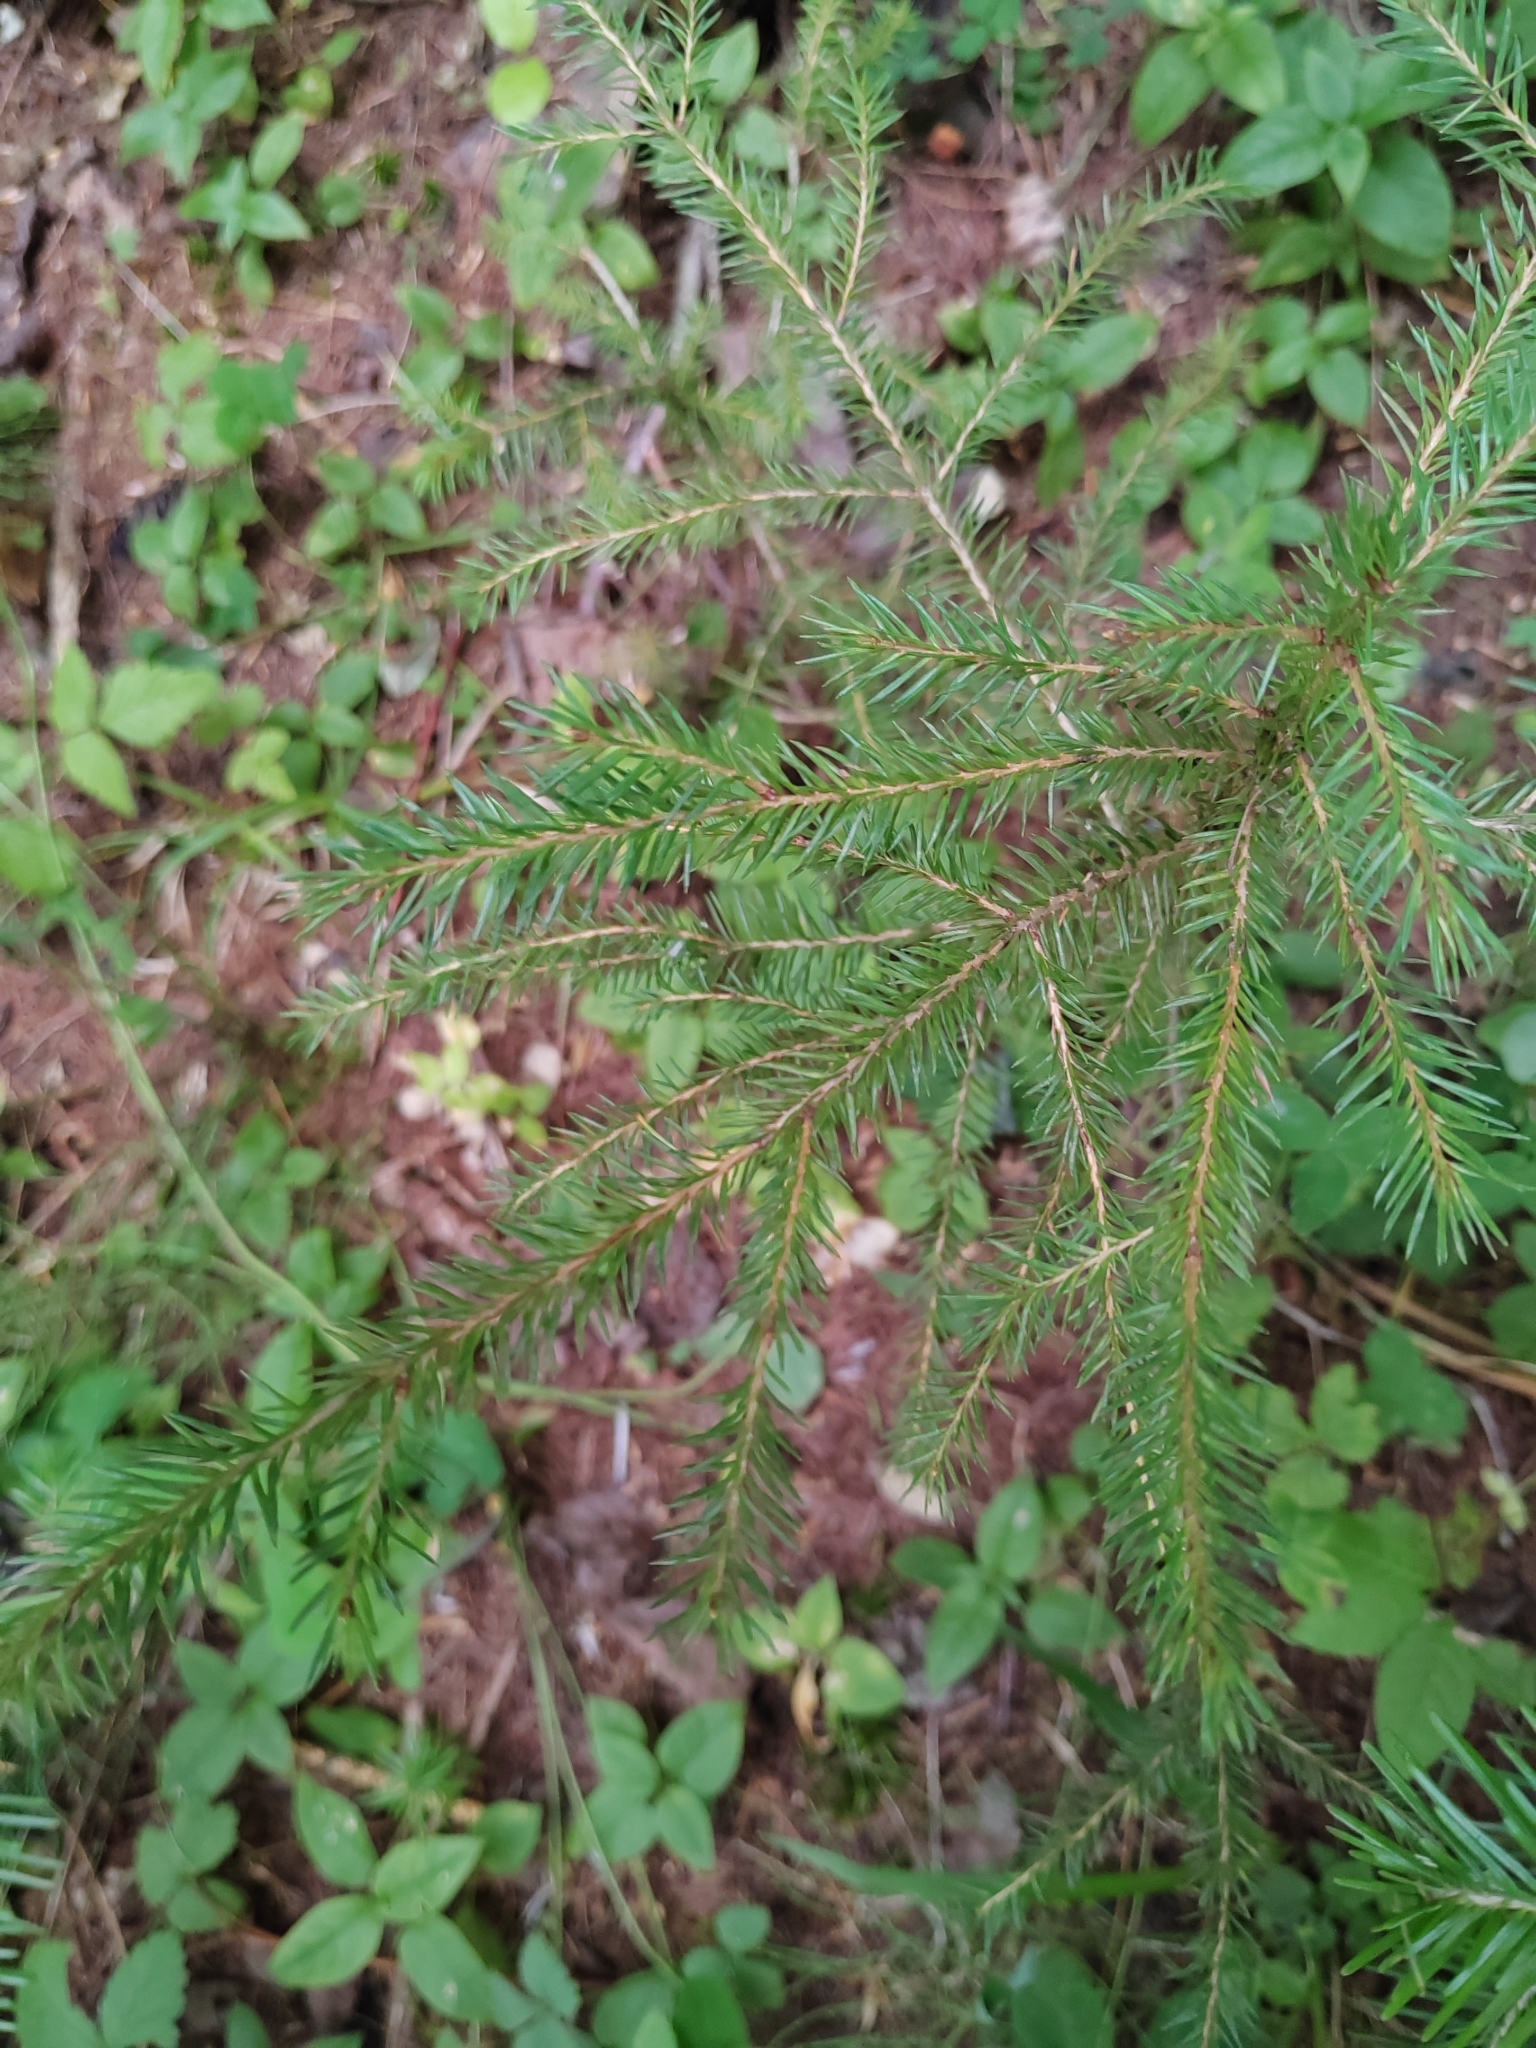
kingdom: Plantae
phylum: Tracheophyta
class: Pinopsida
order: Pinales
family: Pinaceae
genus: Picea
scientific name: Picea obovata
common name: Siberian spruce
